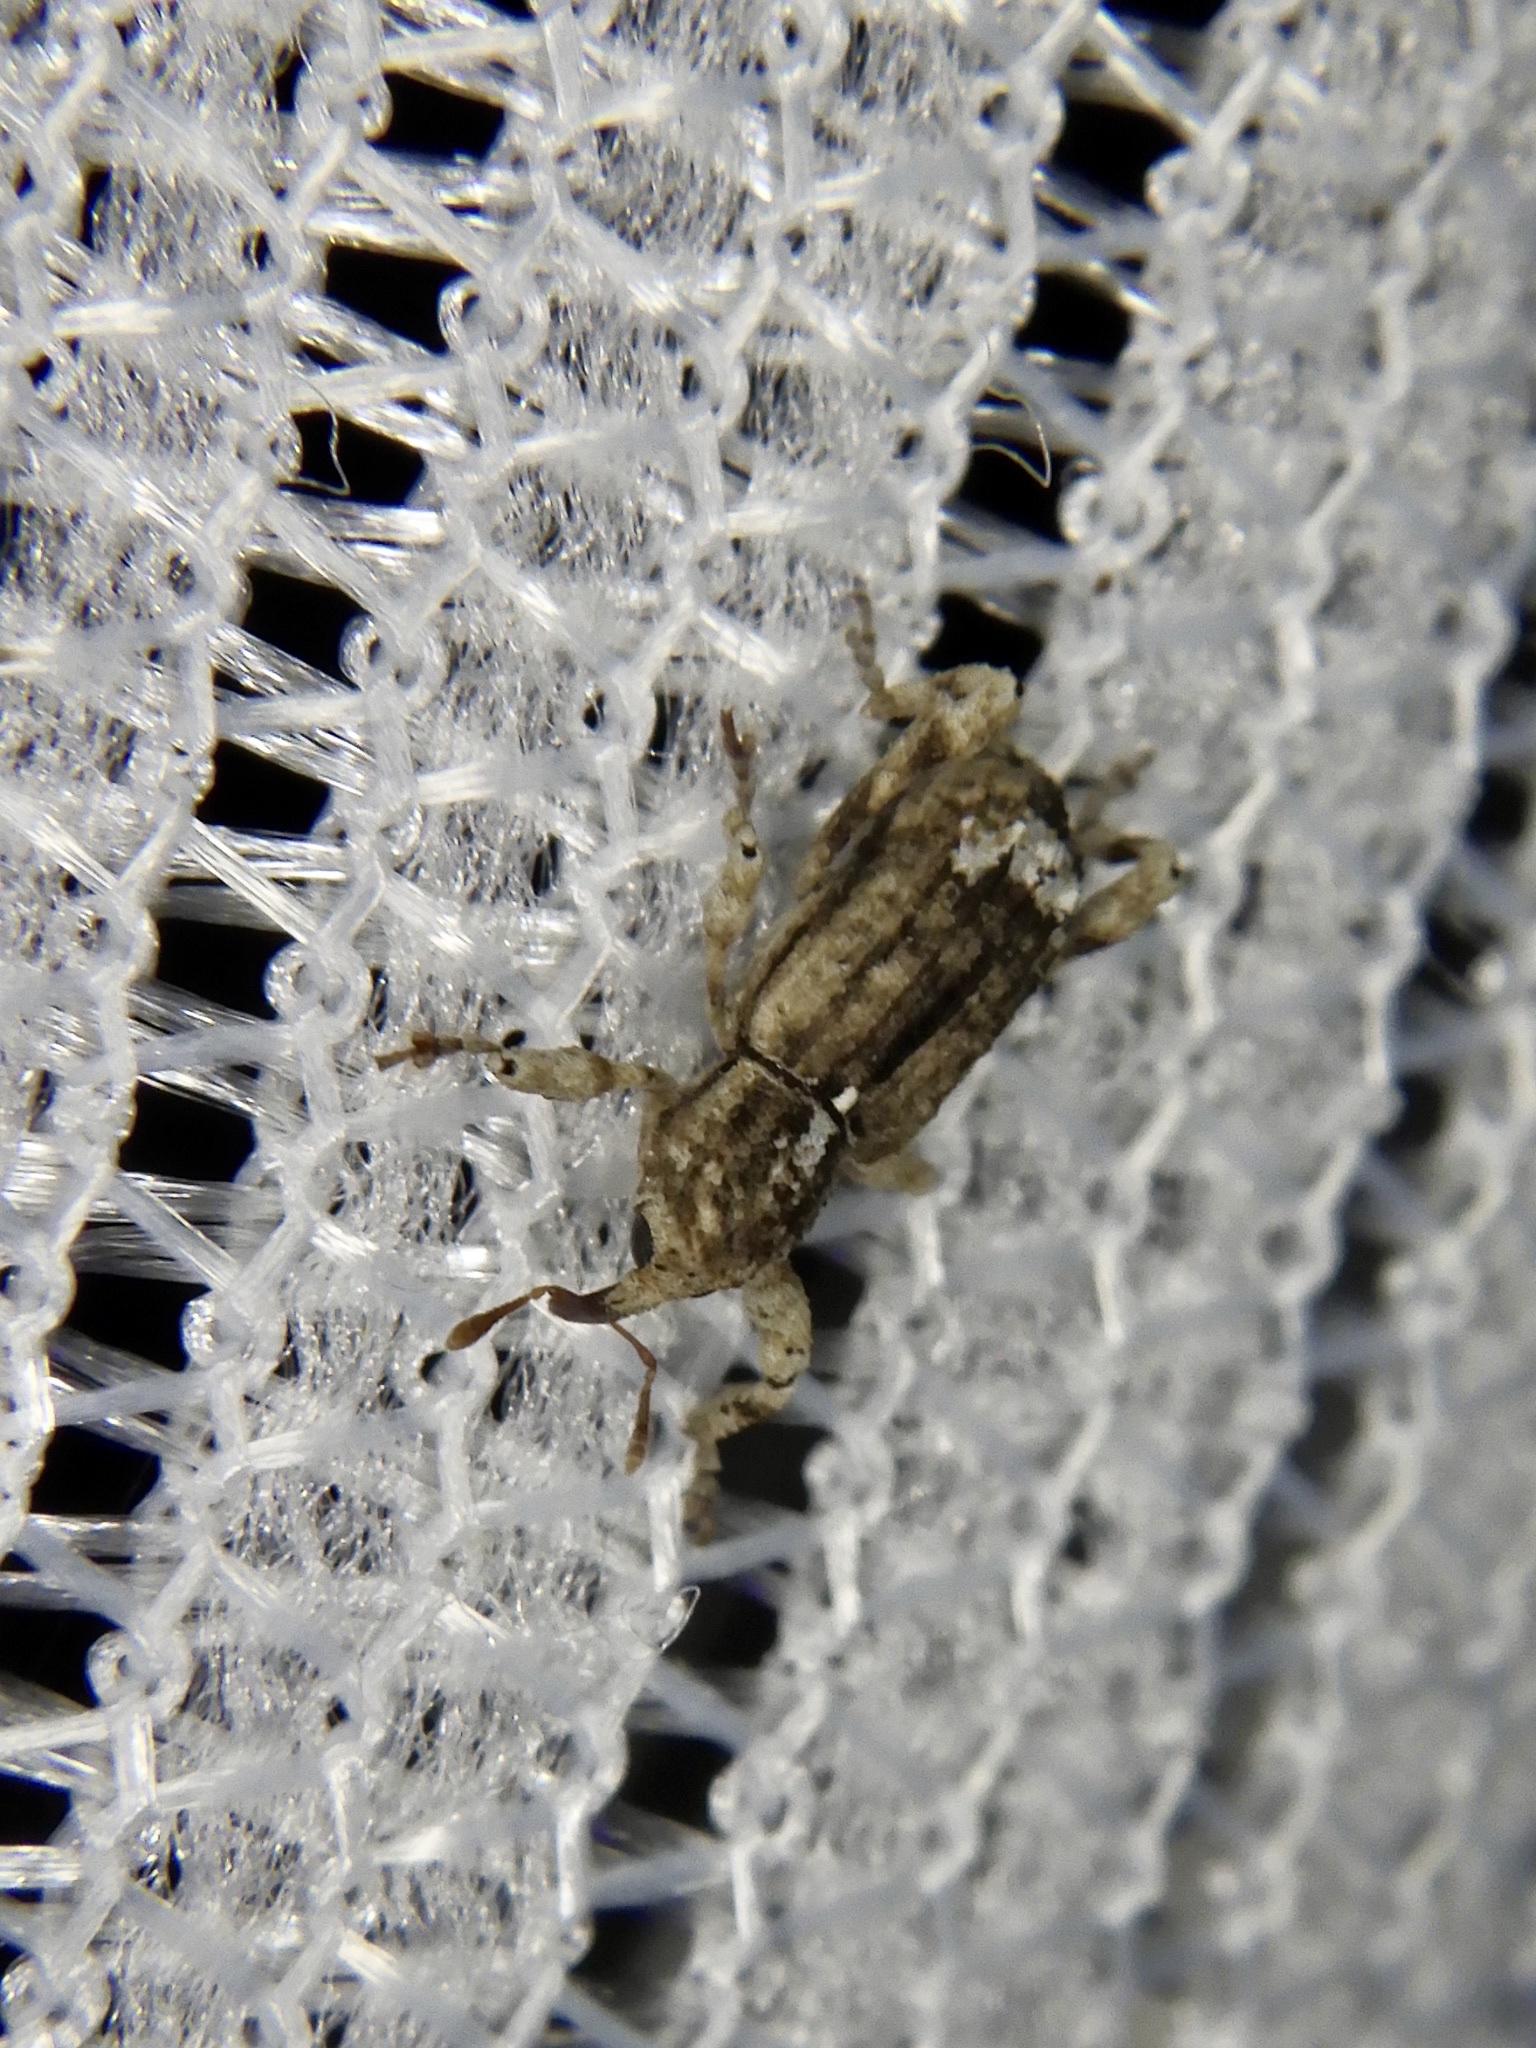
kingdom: Animalia
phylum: Arthropoda
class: Insecta
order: Coleoptera
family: Curculionidae
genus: Cryptorhynchus
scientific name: Cryptorhynchus notabilis
